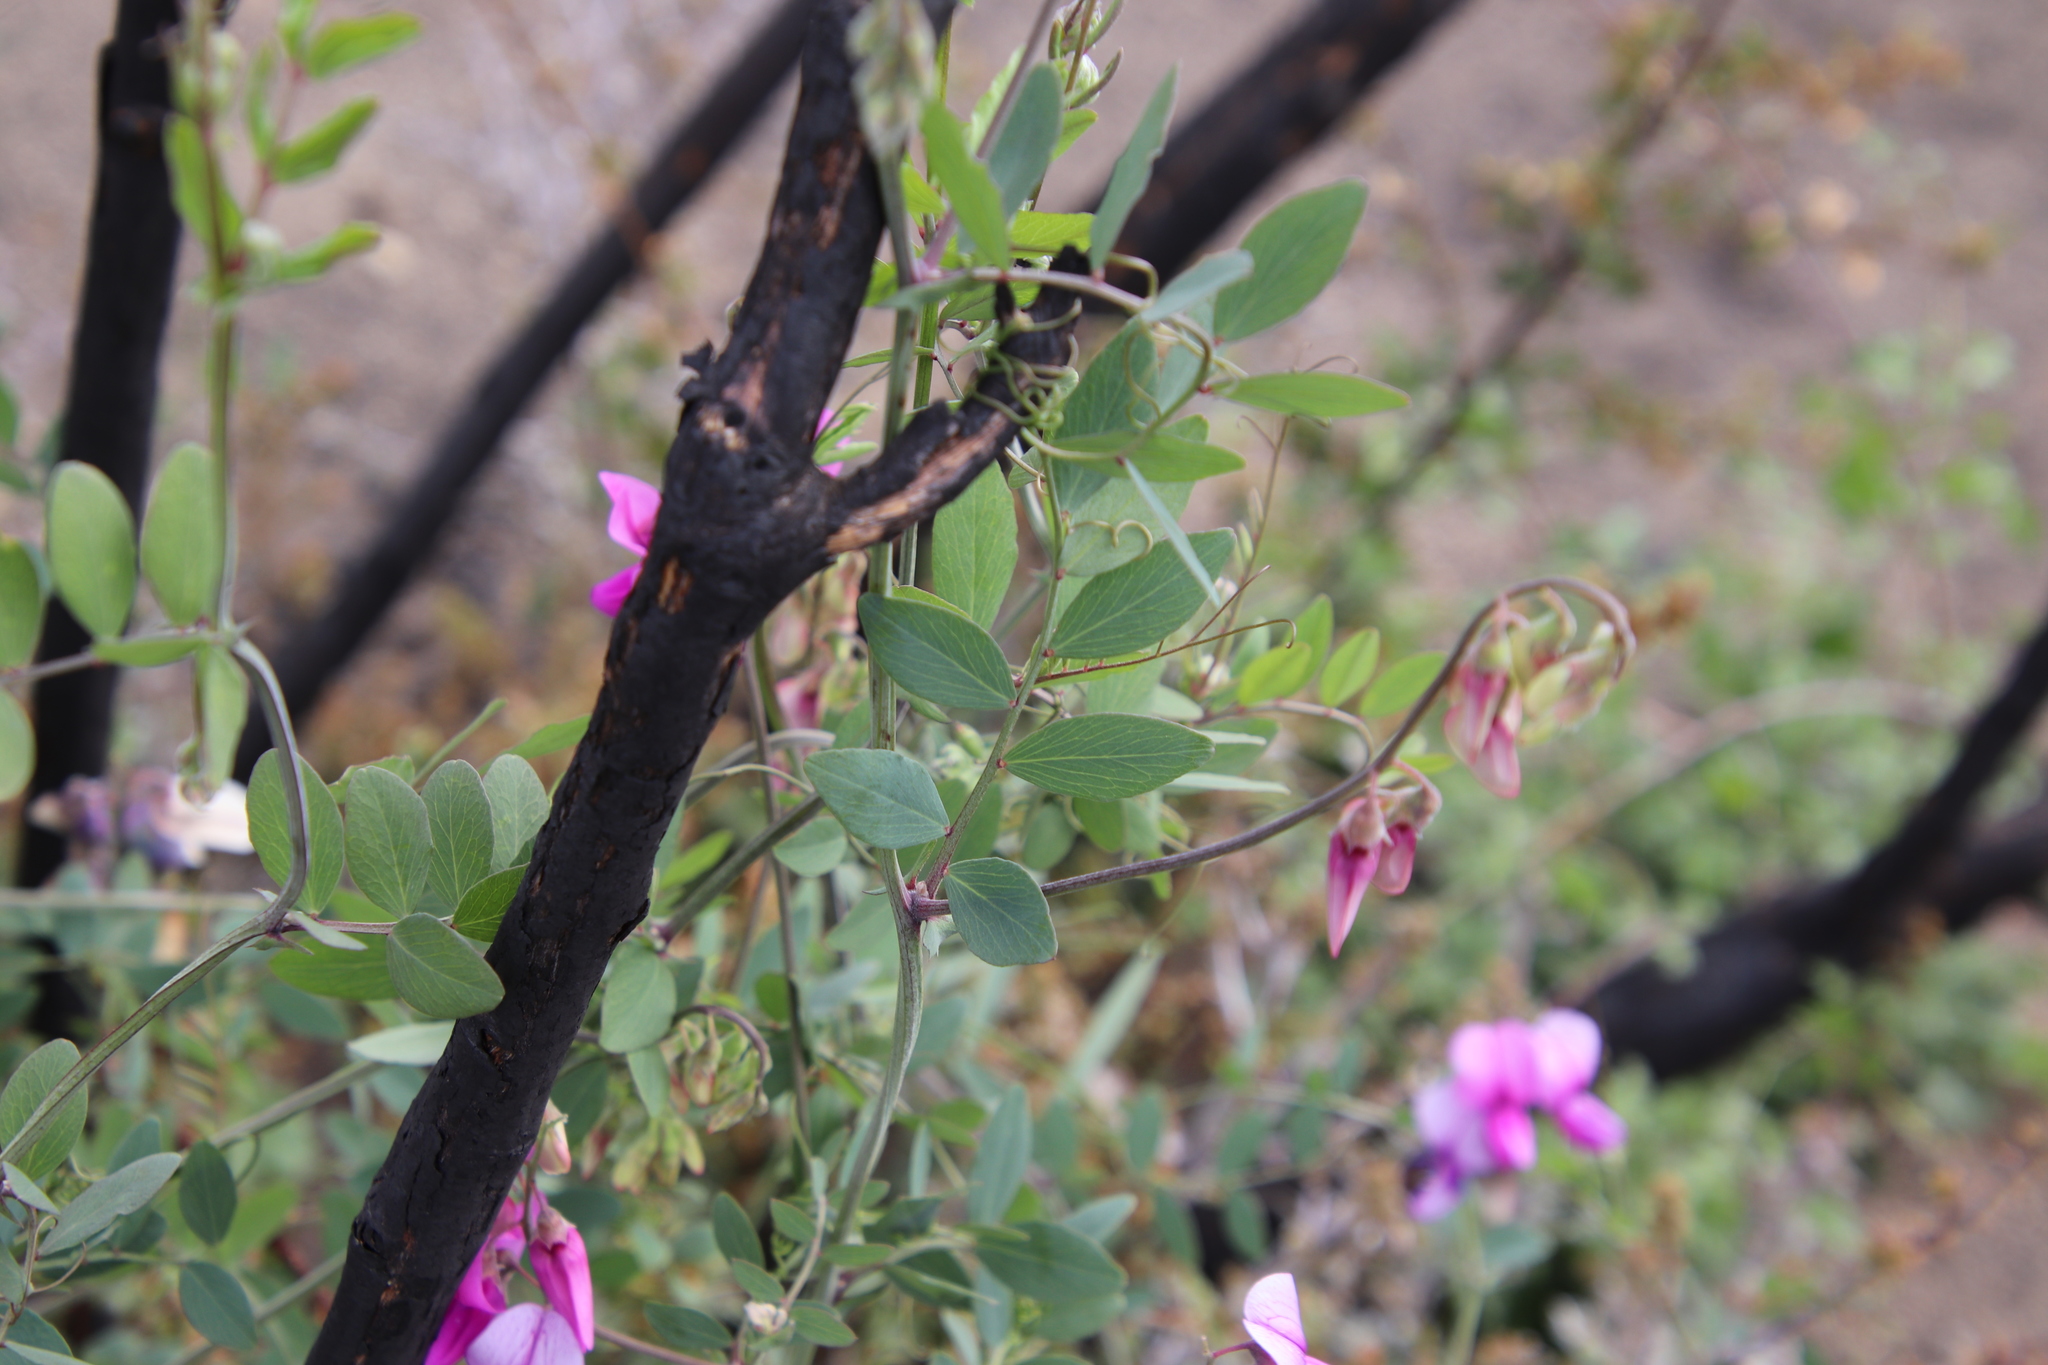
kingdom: Plantae
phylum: Tracheophyta
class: Magnoliopsida
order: Fabales
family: Fabaceae
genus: Lathyrus
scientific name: Lathyrus vestitus
